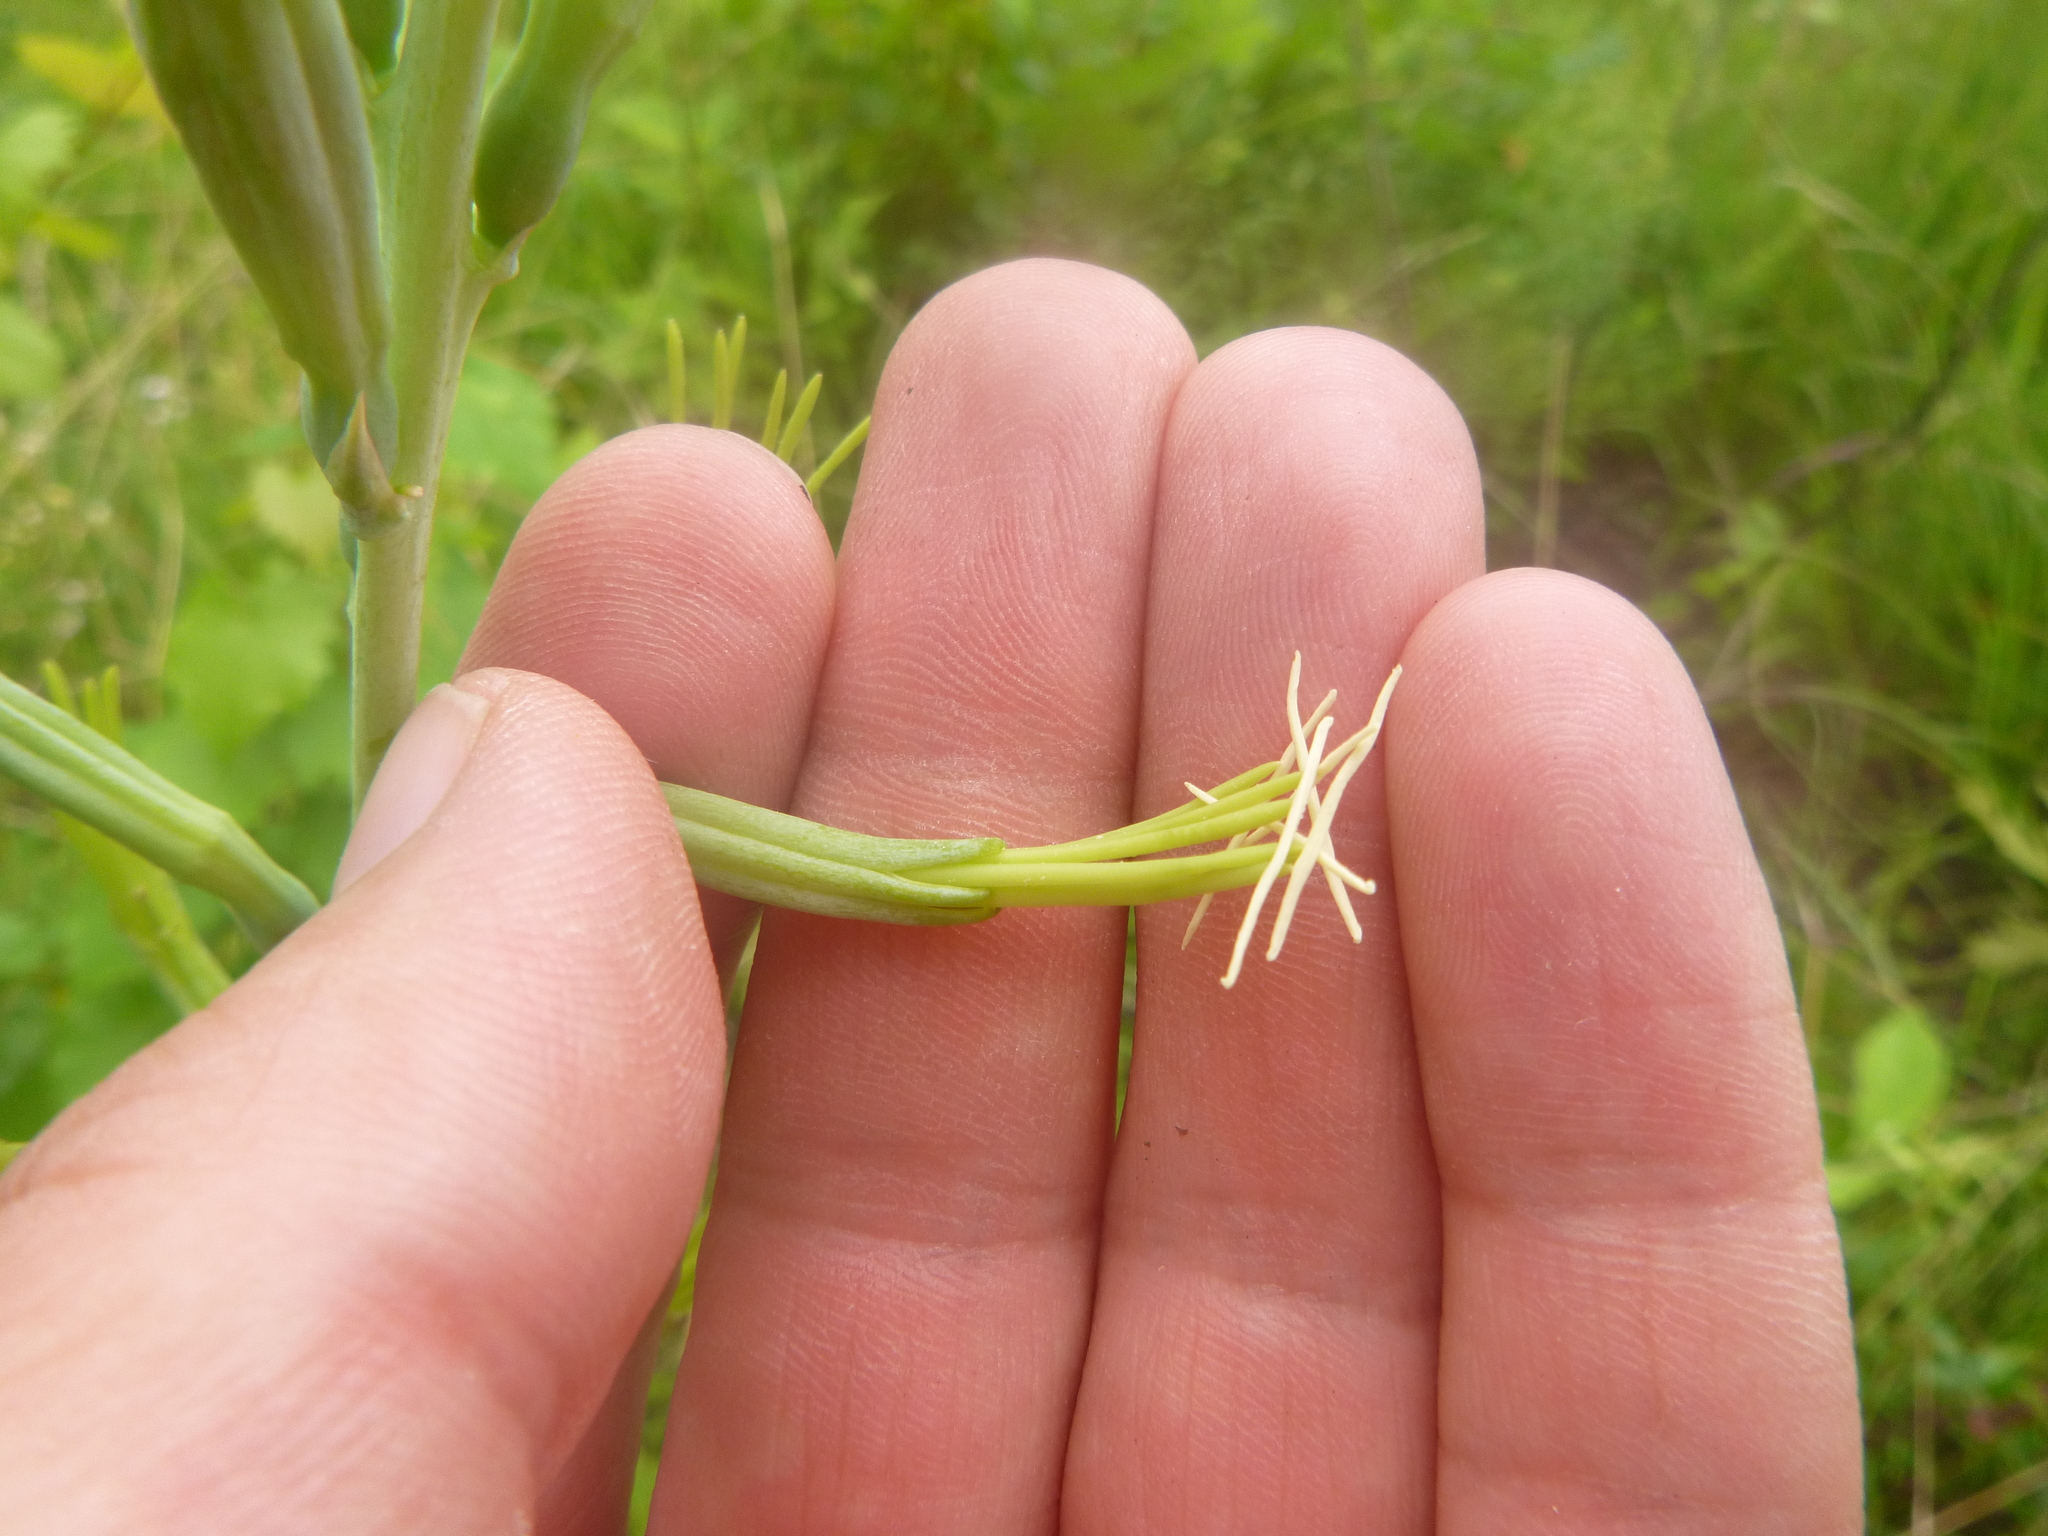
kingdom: Plantae
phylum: Tracheophyta
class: Liliopsida
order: Asparagales
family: Asparagaceae
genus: Agave
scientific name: Agave virginica
